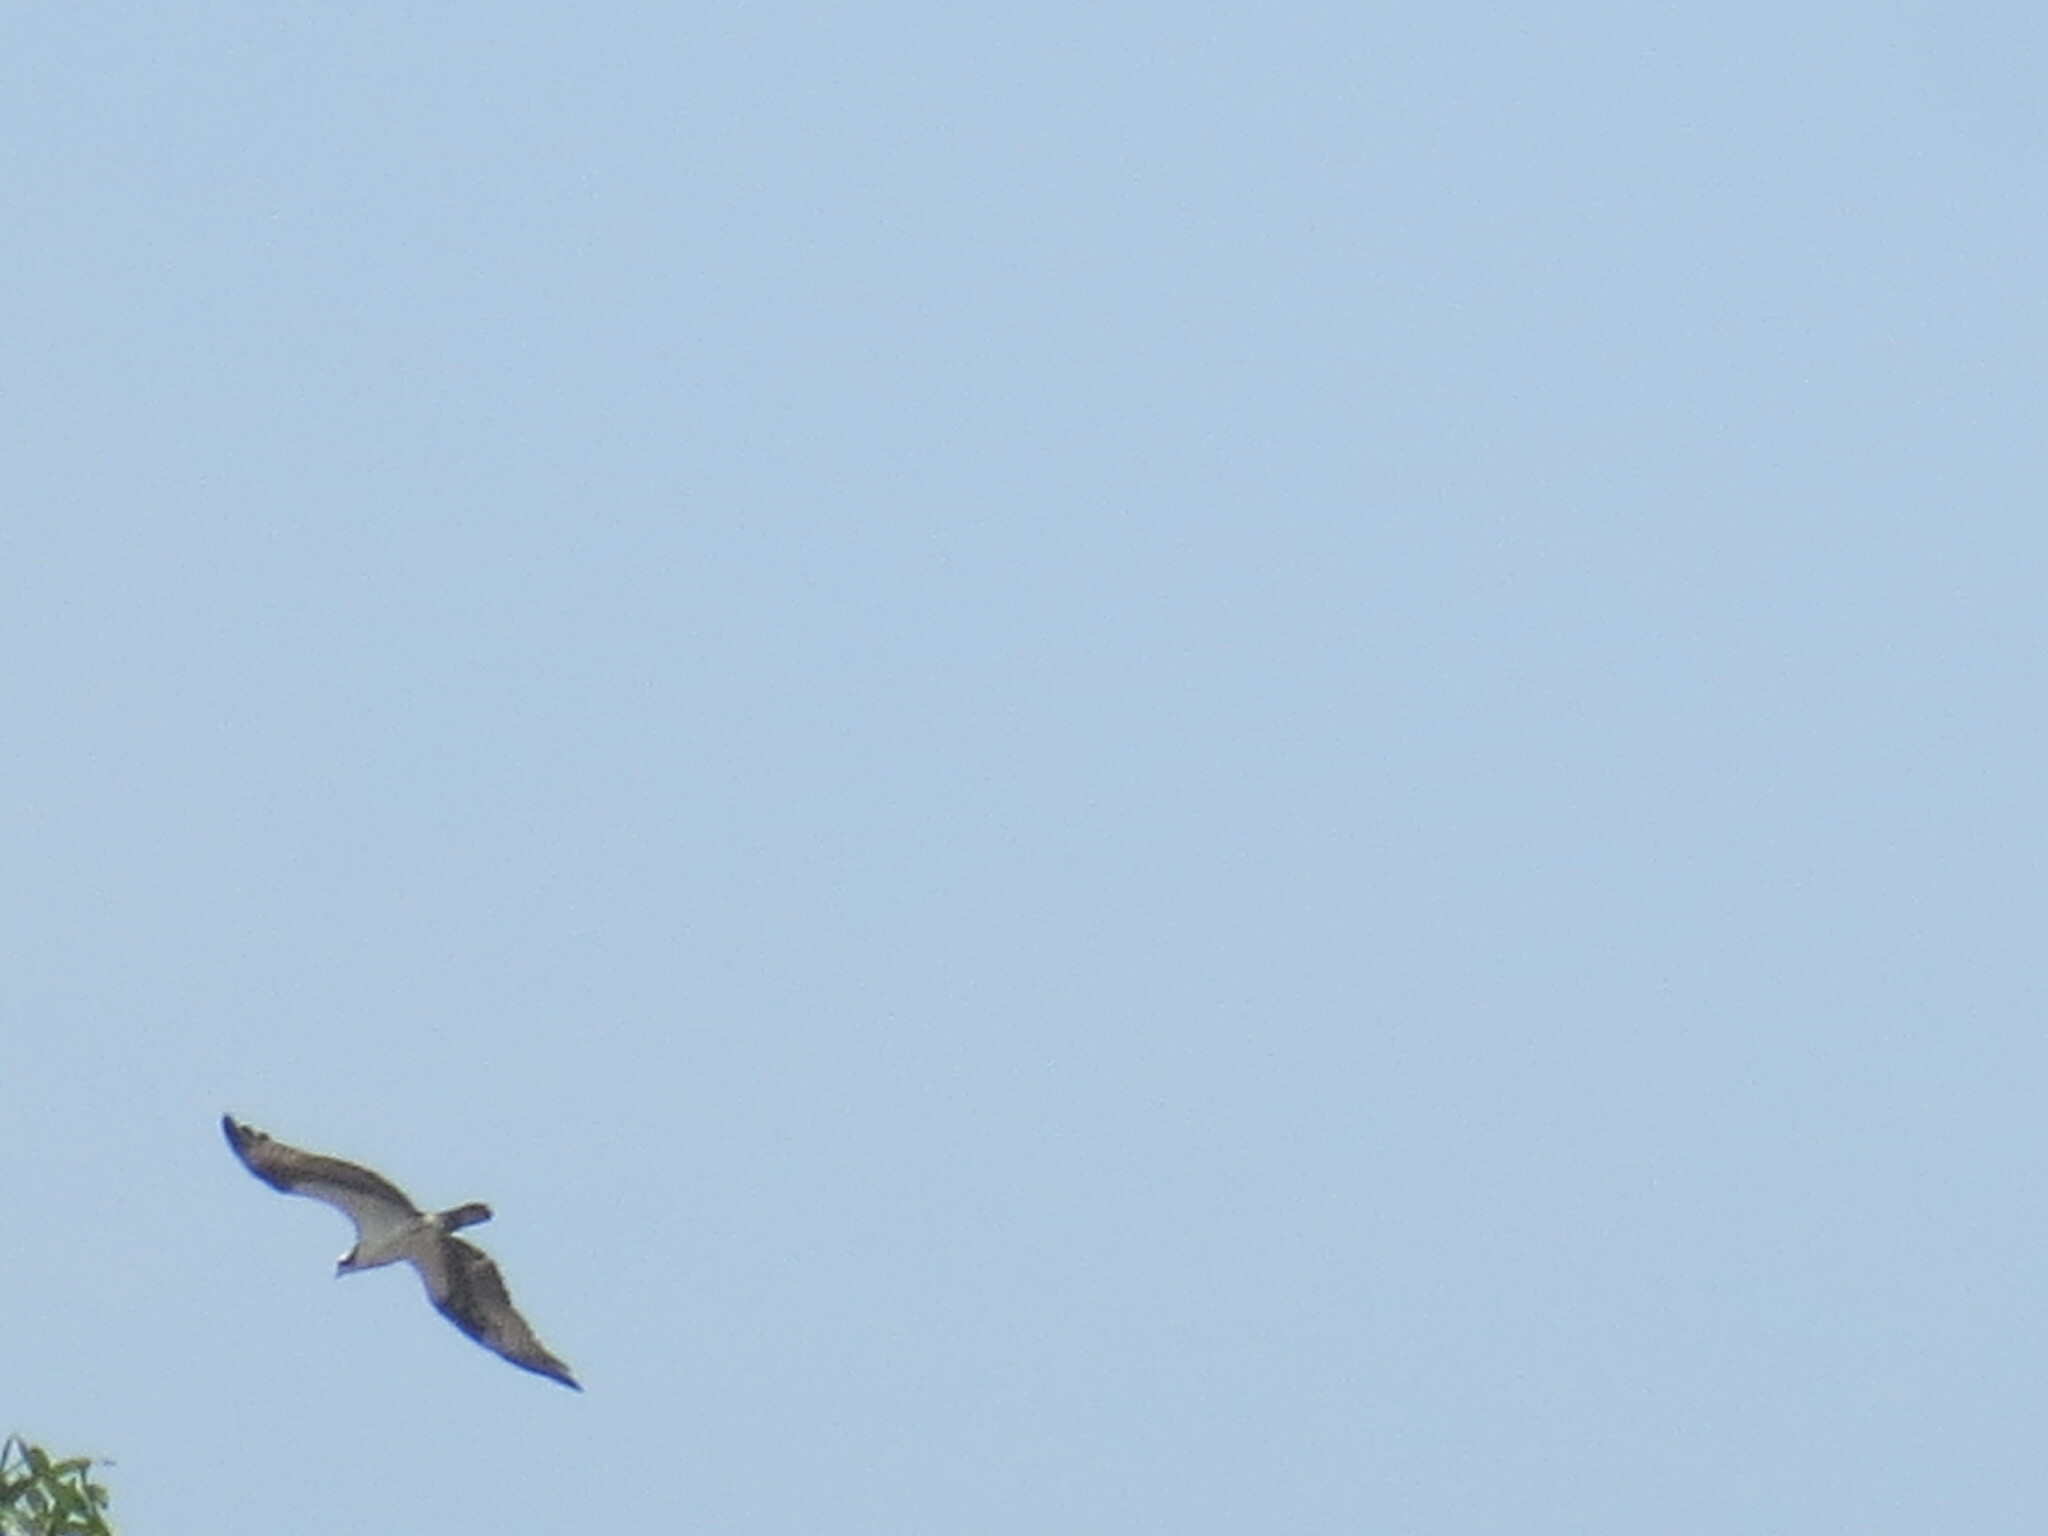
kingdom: Animalia
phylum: Chordata
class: Aves
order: Accipitriformes
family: Pandionidae
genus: Pandion
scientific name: Pandion haliaetus
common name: Osprey
